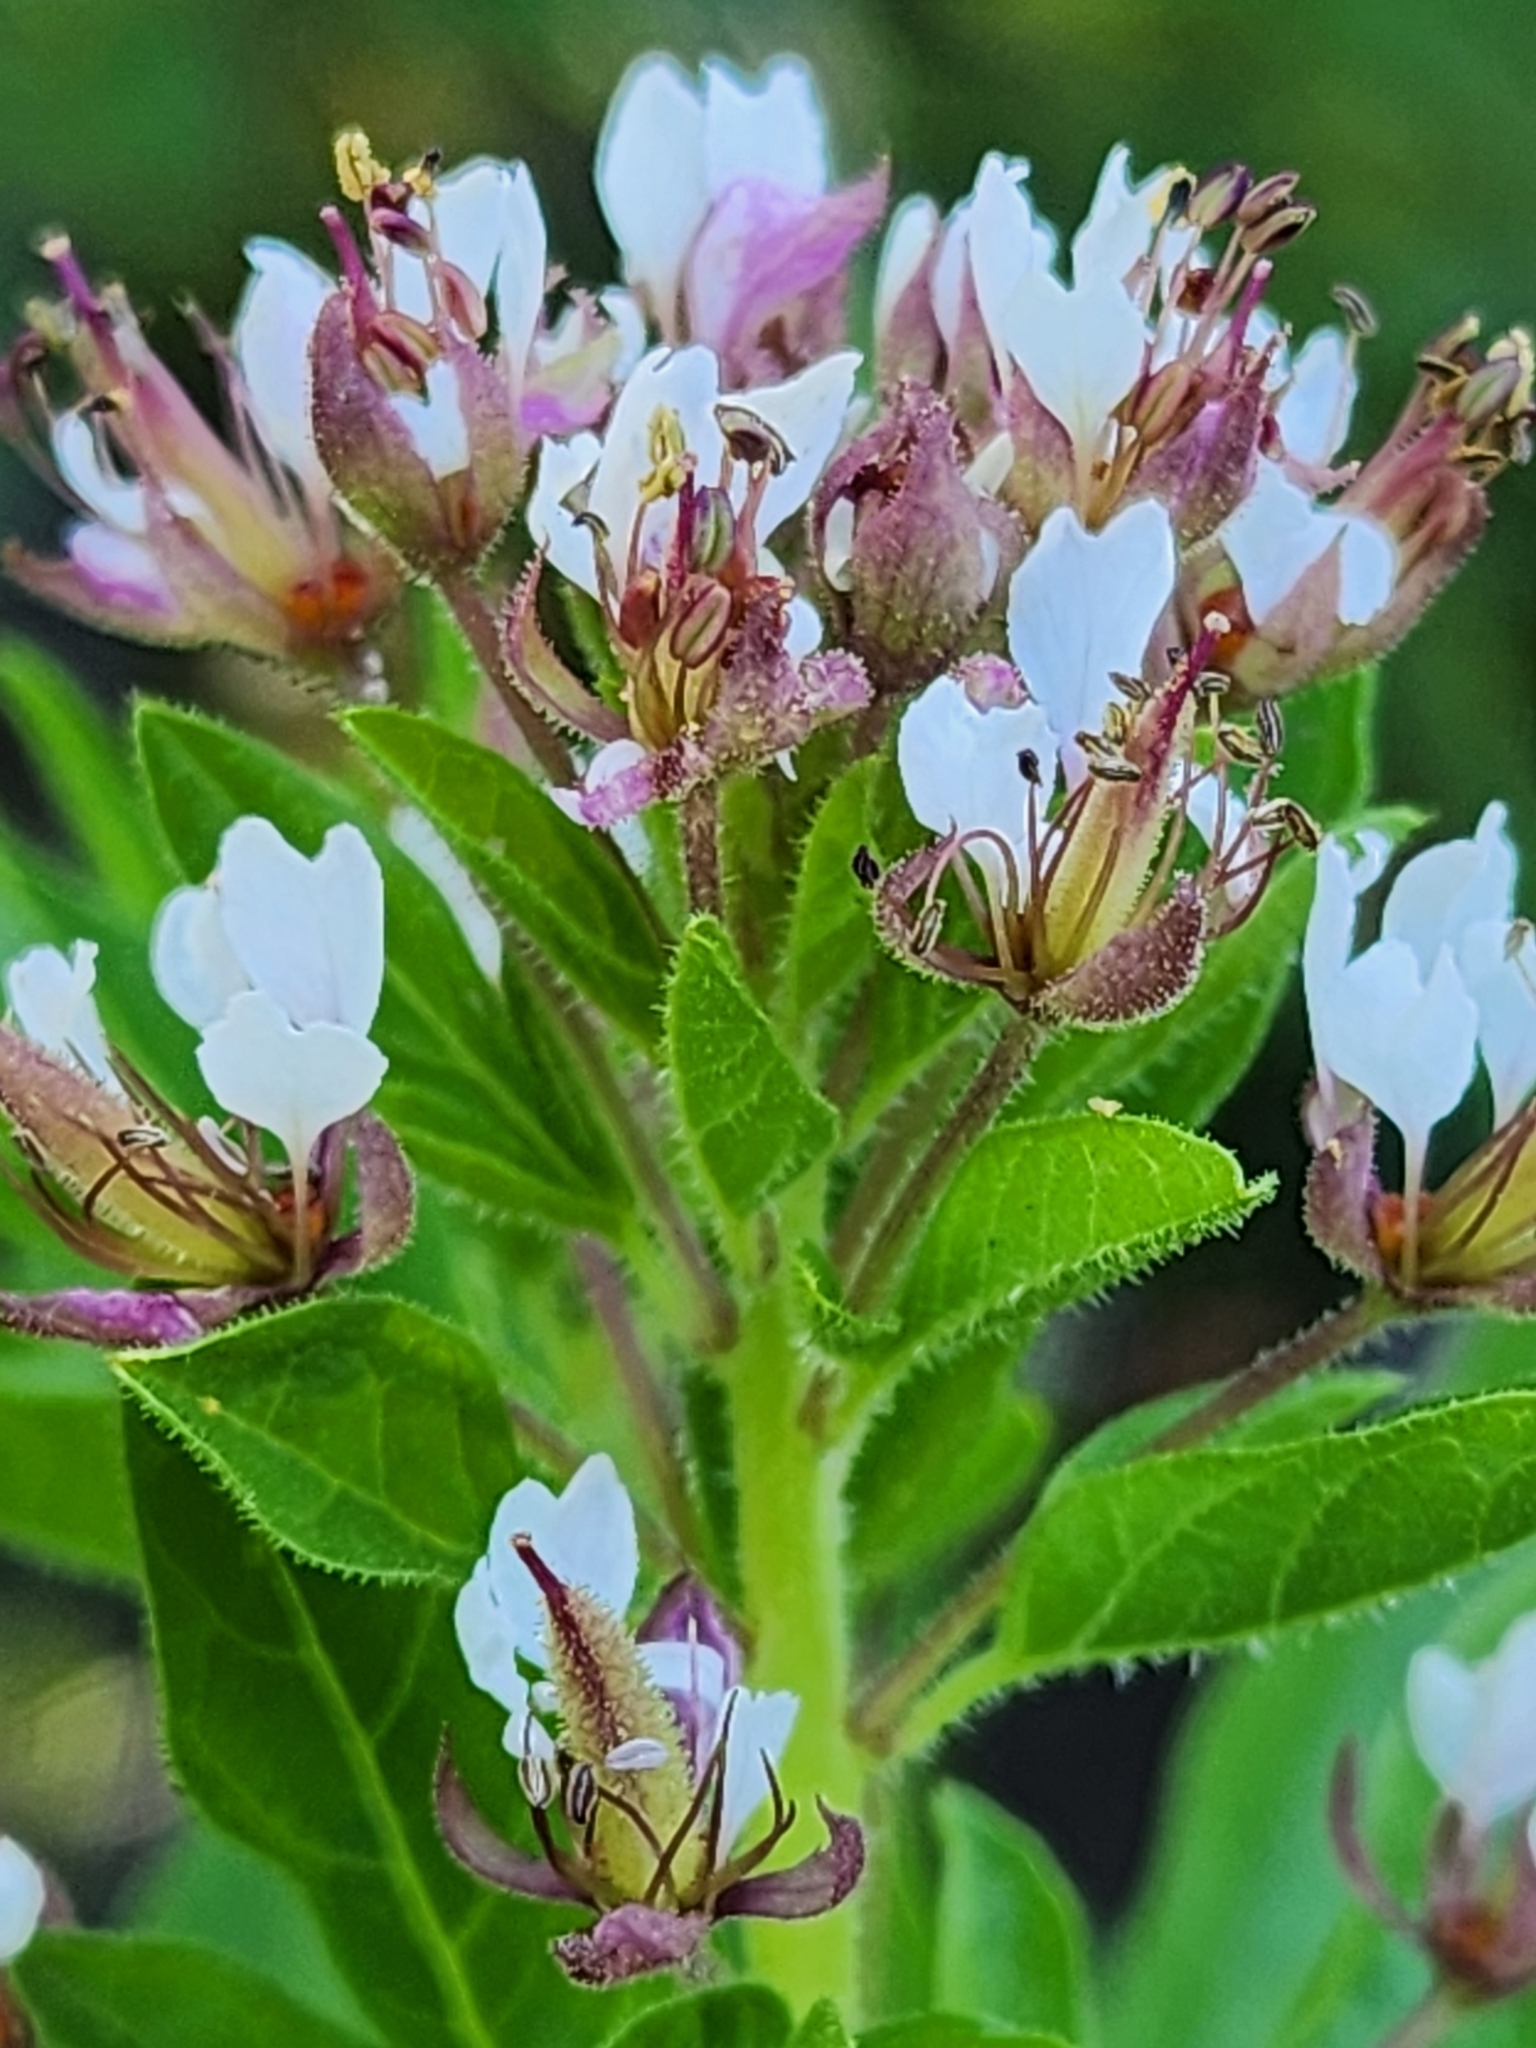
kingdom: Plantae
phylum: Tracheophyta
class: Magnoliopsida
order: Brassicales
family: Cleomaceae
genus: Polanisia
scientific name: Polanisia dodecandra
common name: Clammyweed
